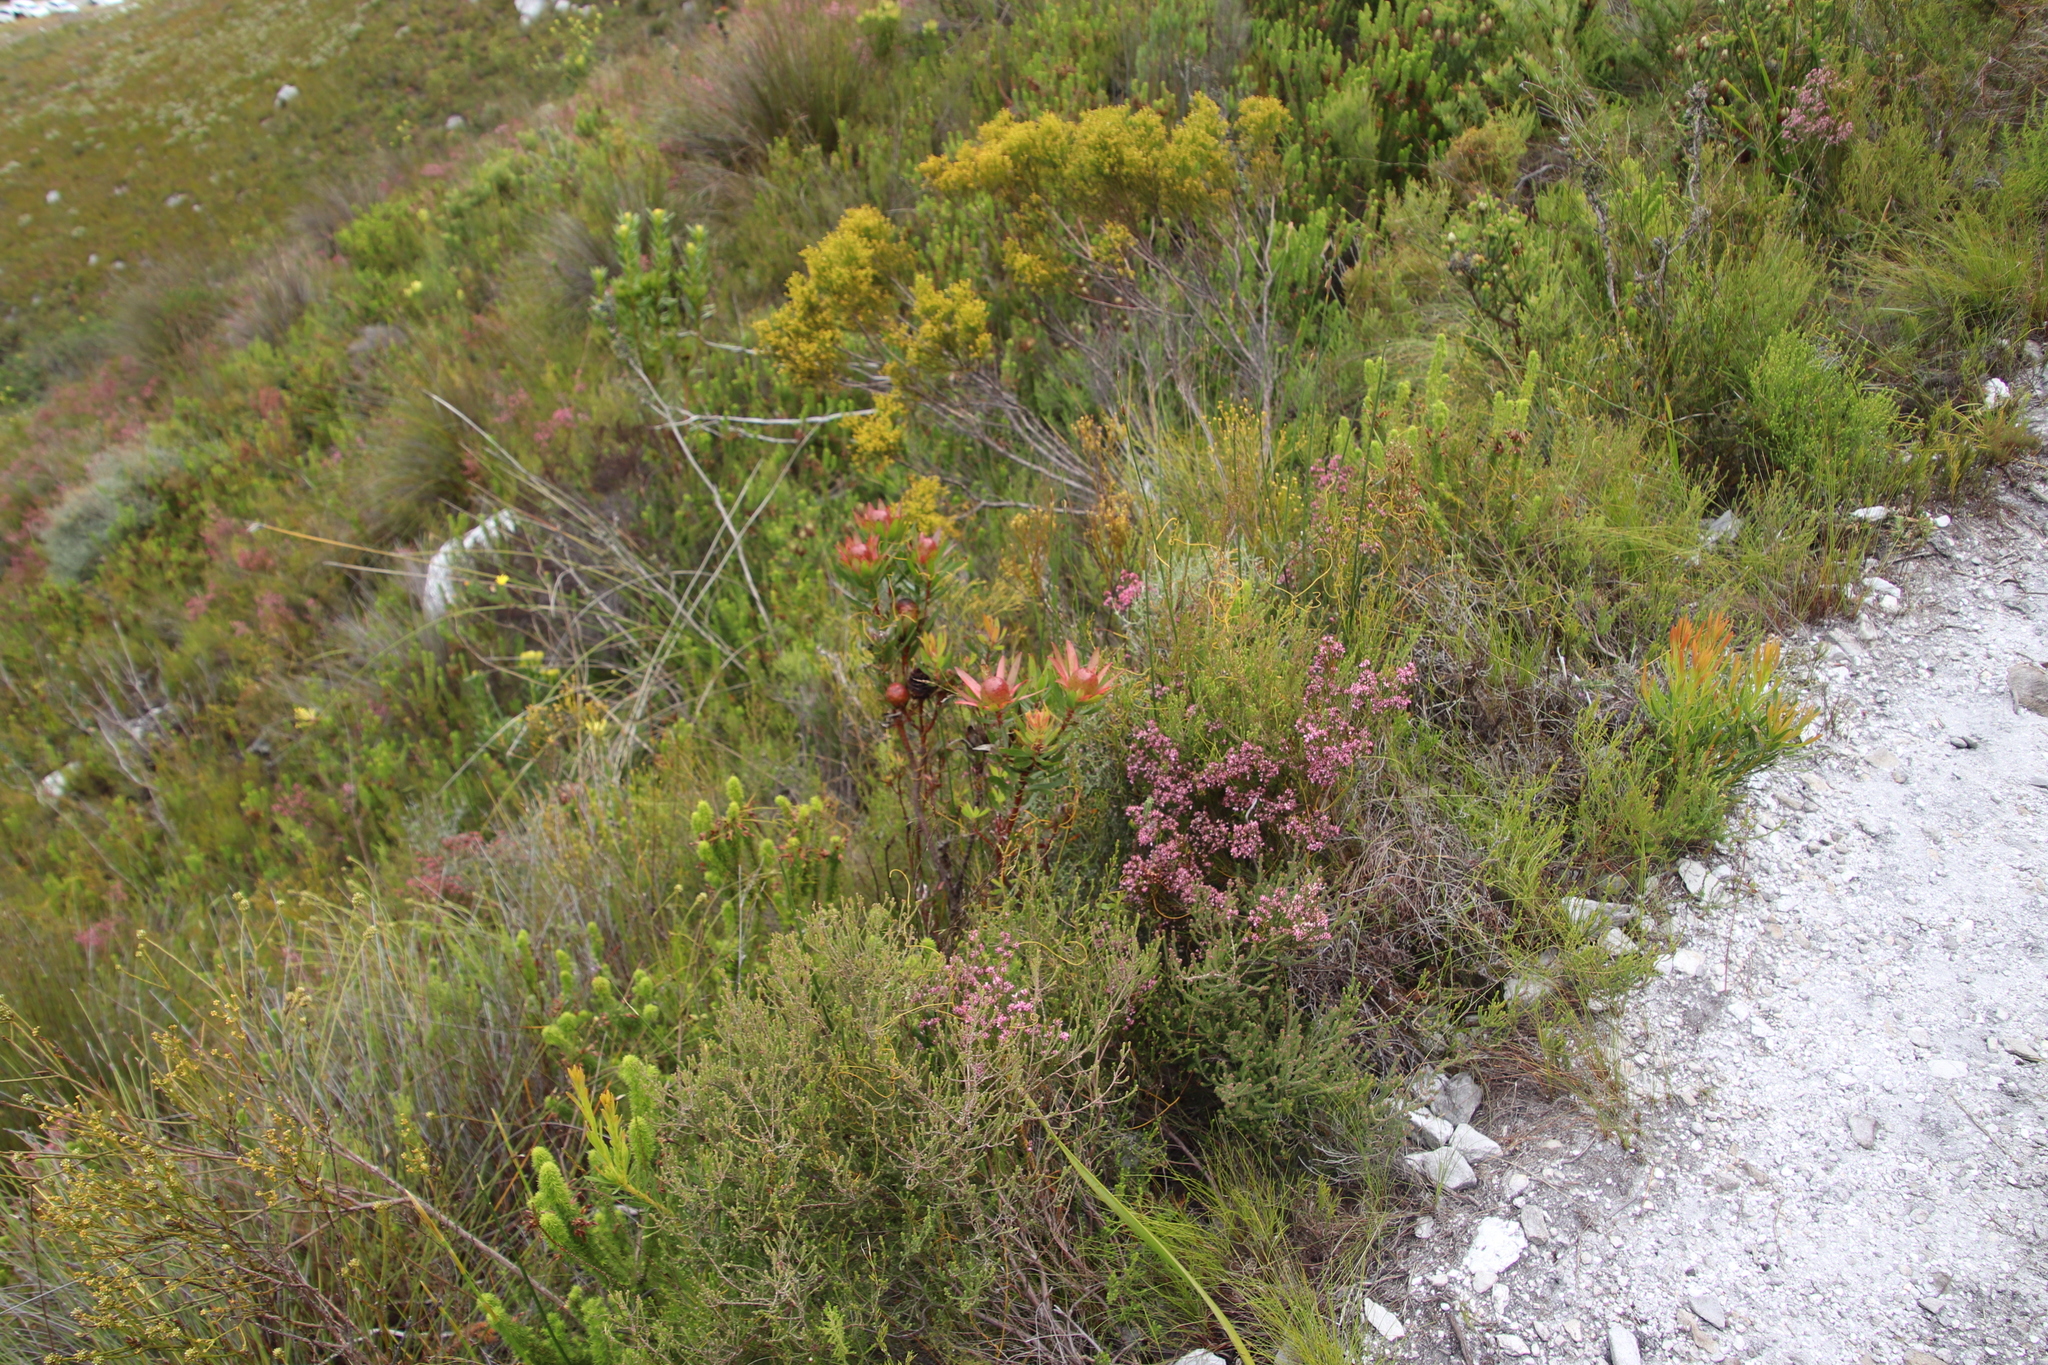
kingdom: Plantae
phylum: Tracheophyta
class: Magnoliopsida
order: Proteales
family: Proteaceae
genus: Leucadendron
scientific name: Leucadendron spissifolium
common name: Spear-leaf conebush
